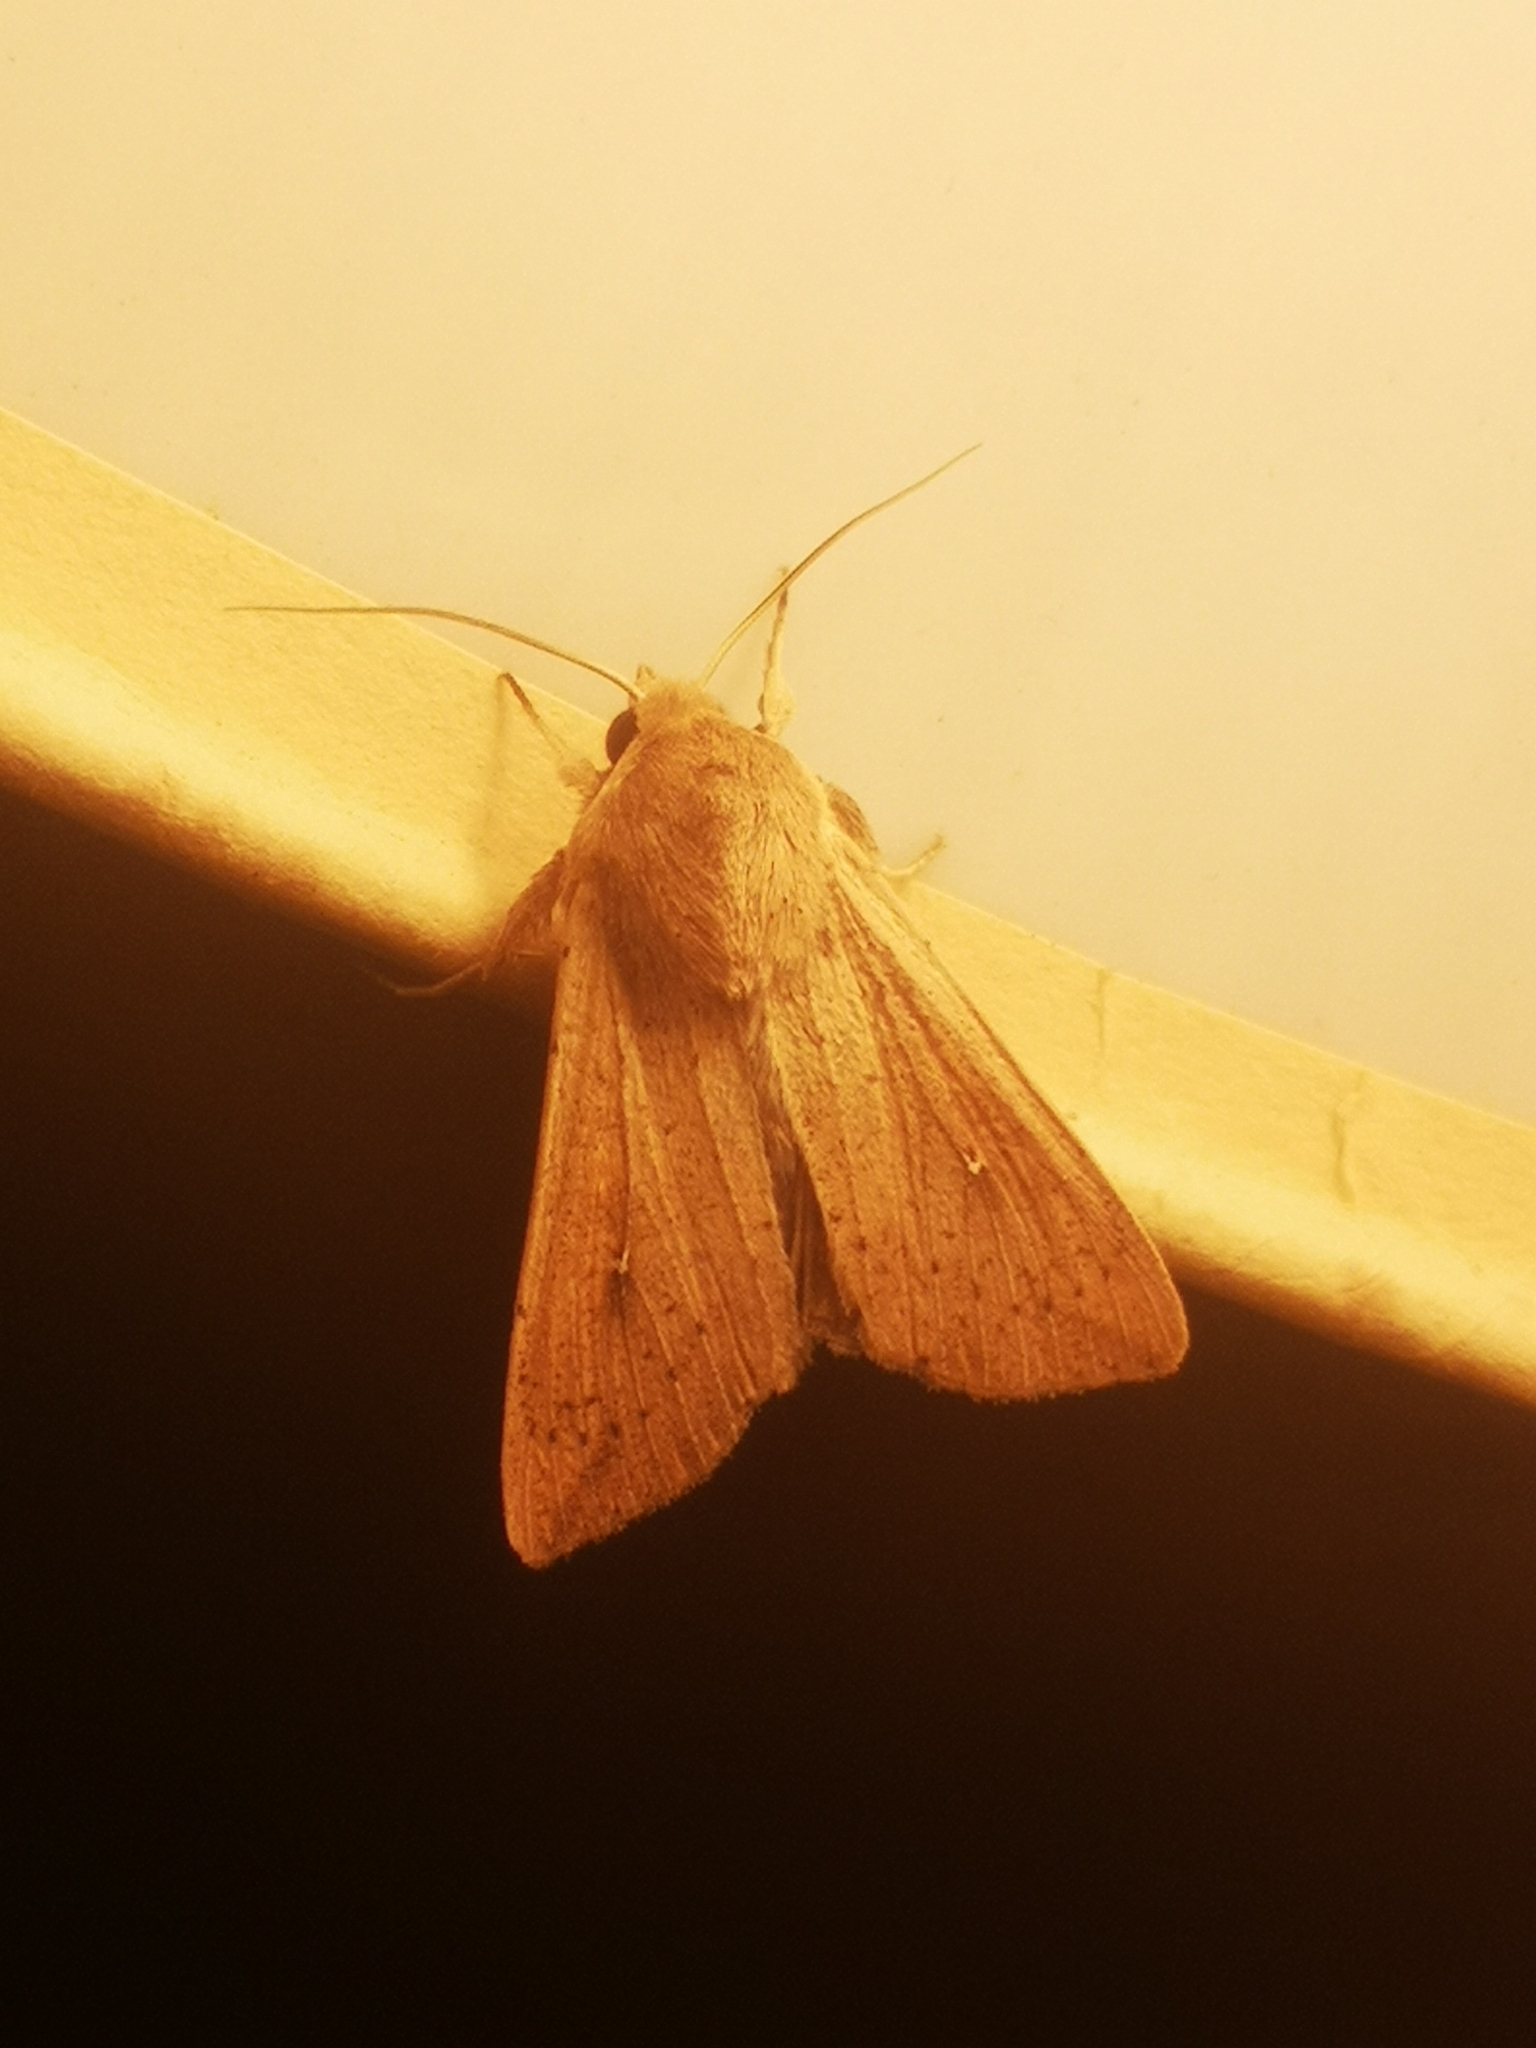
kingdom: Animalia
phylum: Arthropoda
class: Insecta
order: Lepidoptera
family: Noctuidae
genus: Mythimna
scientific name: Mythimna unipuncta
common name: White-speck
